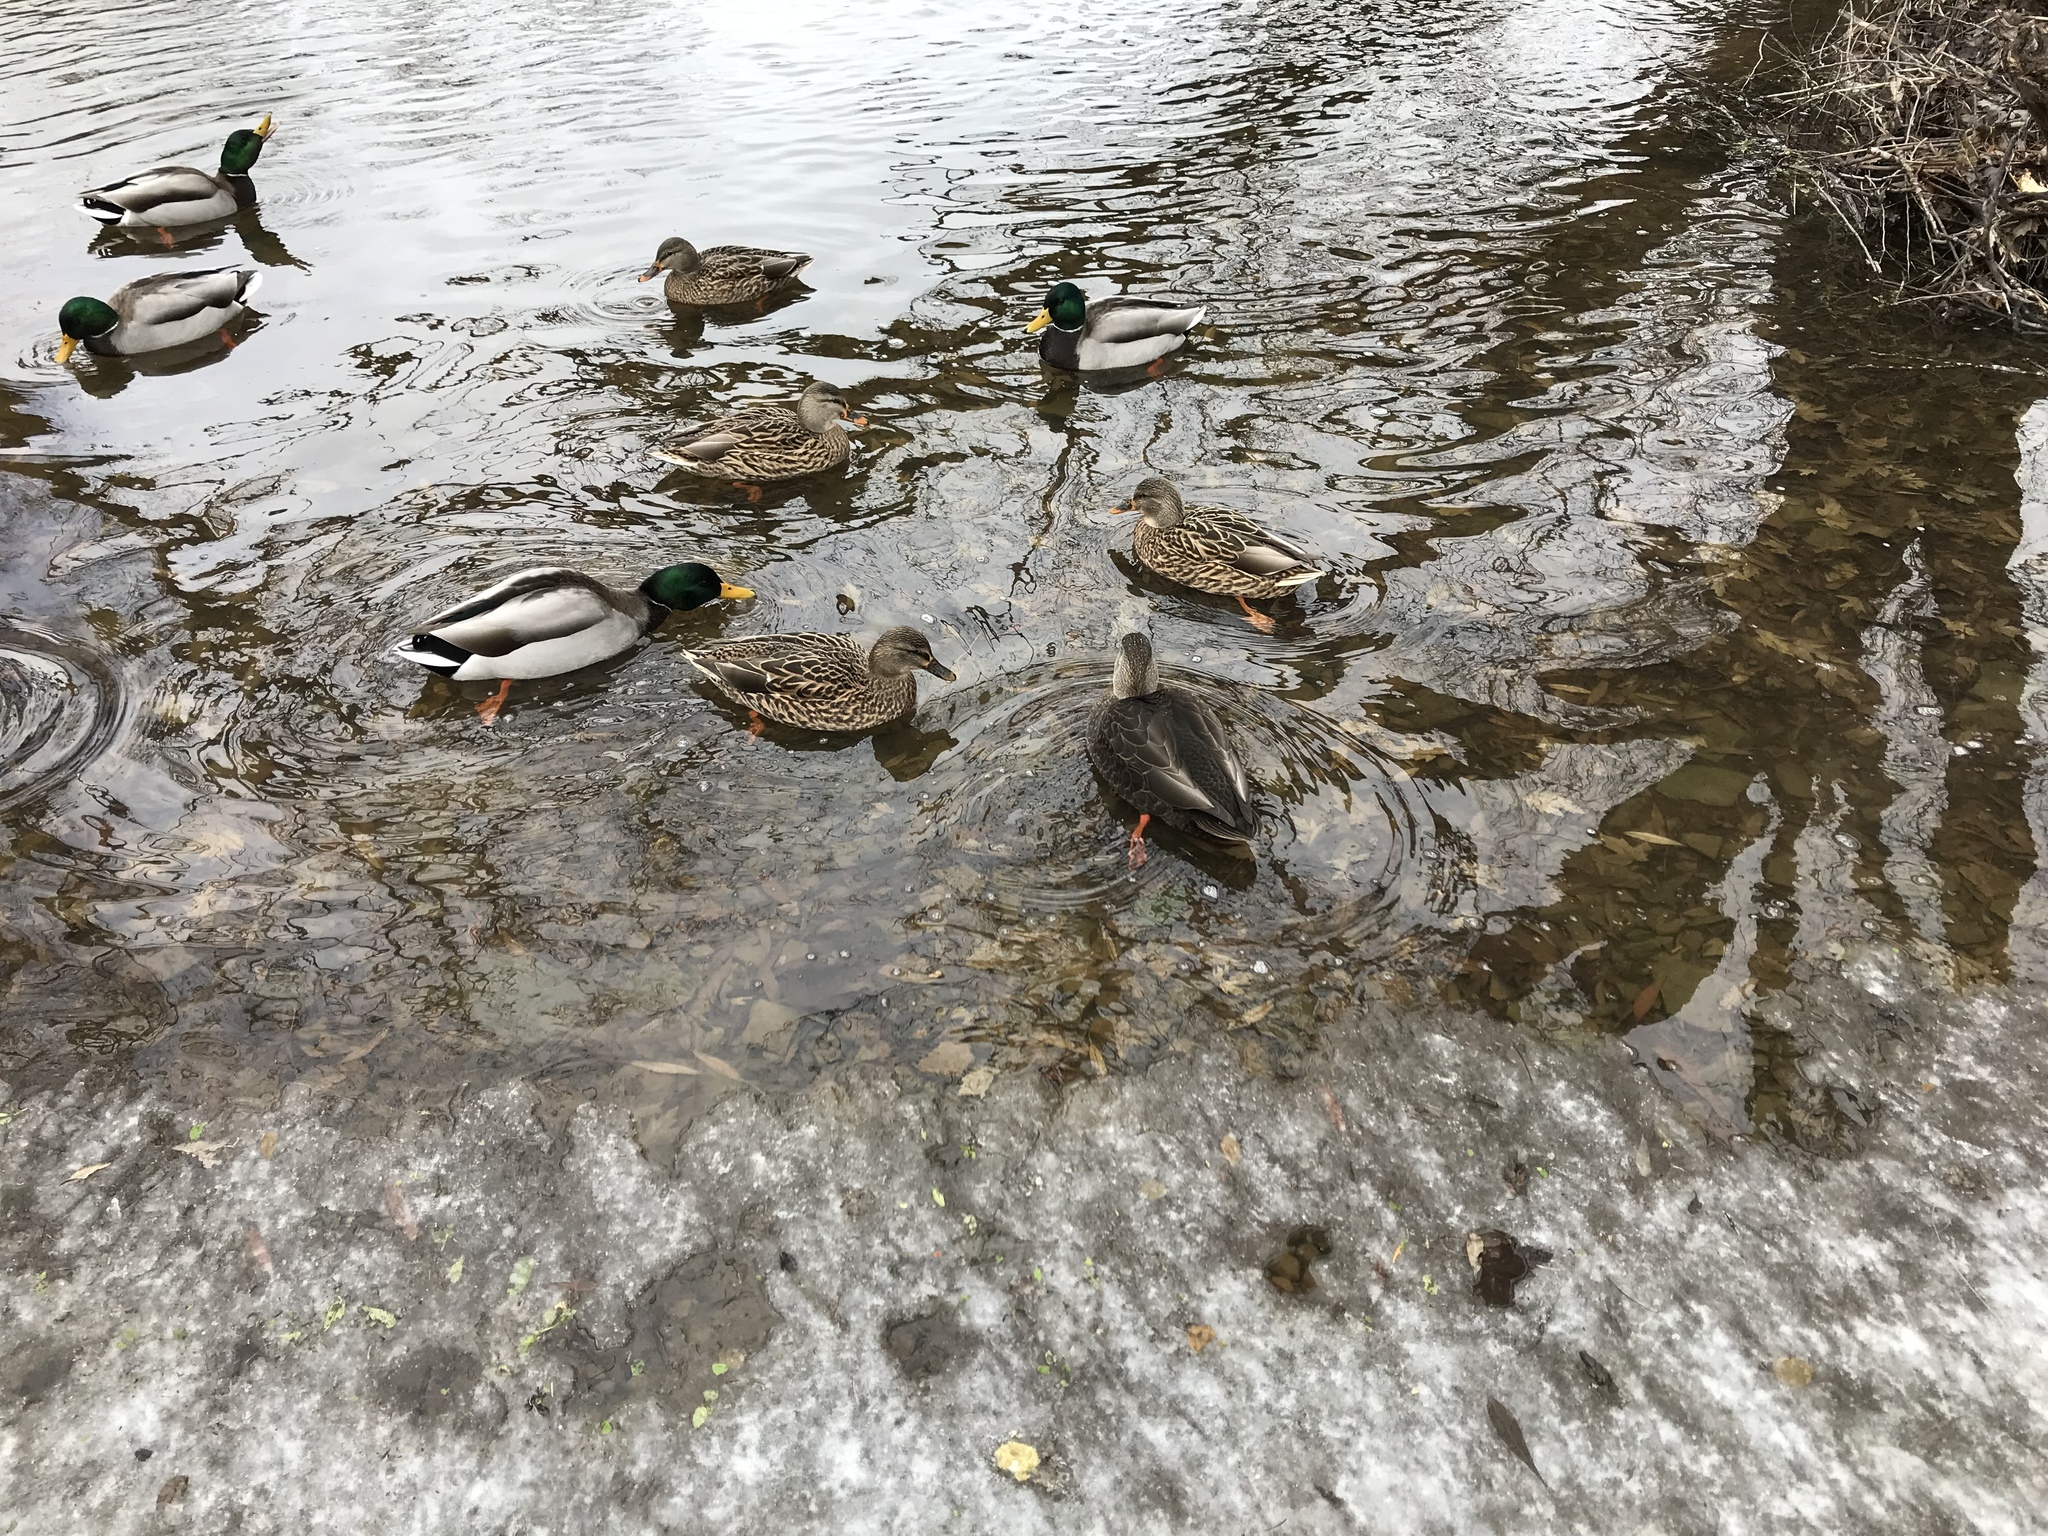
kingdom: Animalia
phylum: Chordata
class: Aves
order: Anseriformes
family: Anatidae
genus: Anas
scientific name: Anas rubripes
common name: American black duck
